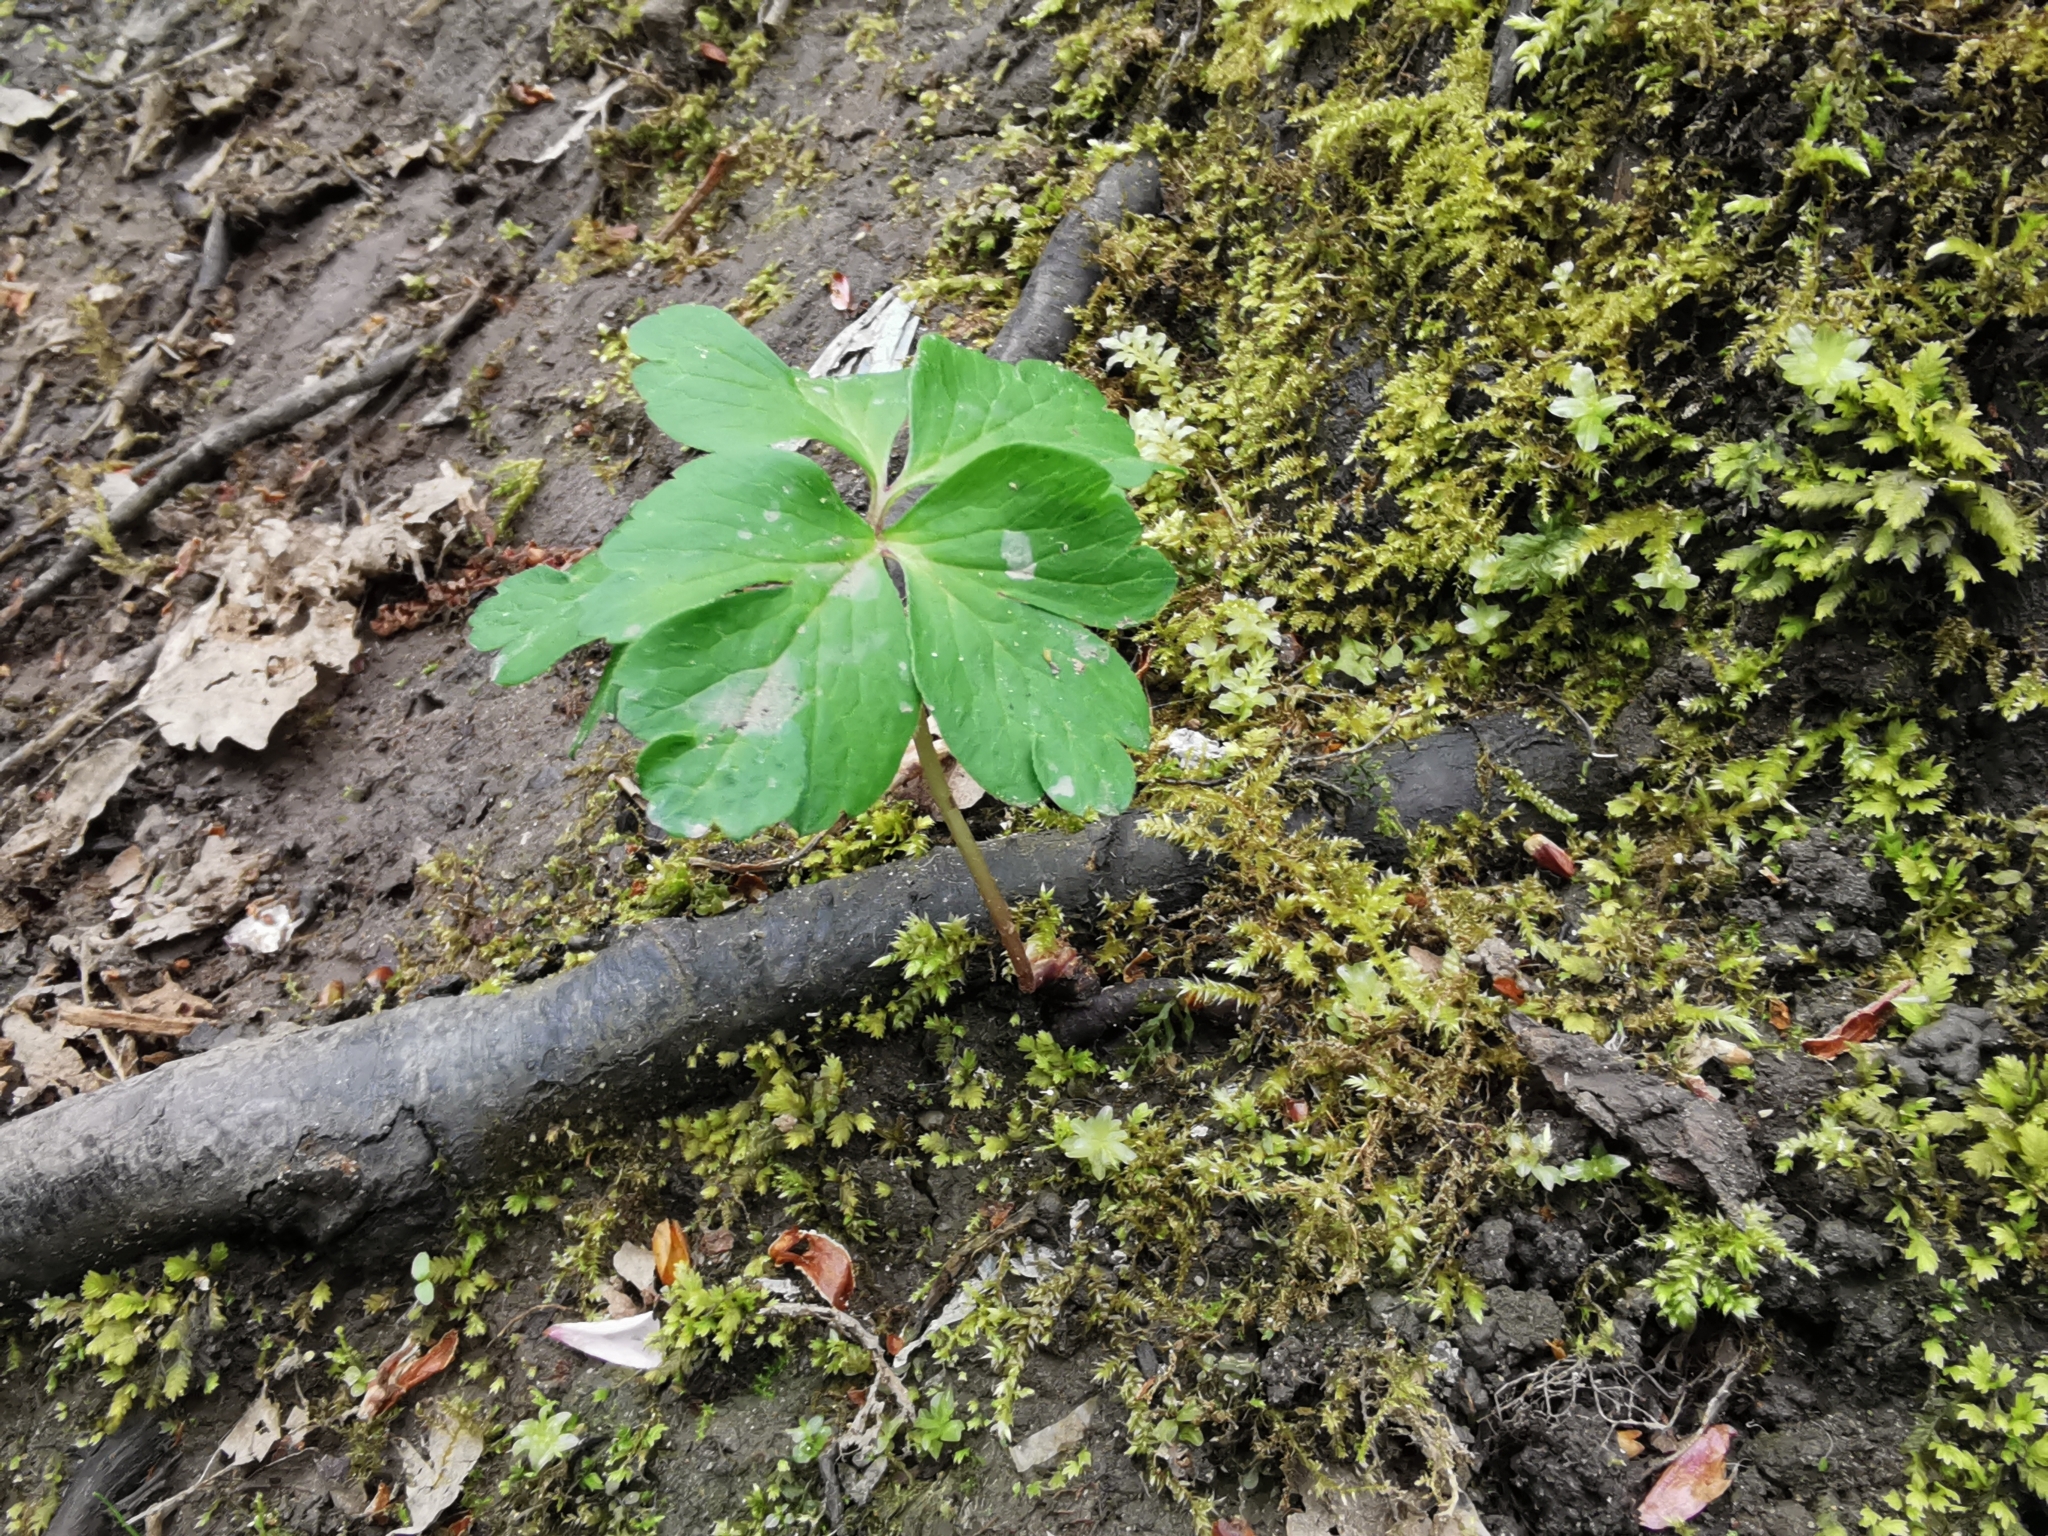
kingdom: Plantae
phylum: Tracheophyta
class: Magnoliopsida
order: Ranunculales
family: Ranunculaceae
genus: Anemone
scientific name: Anemone nemorosa
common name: Wood anemone
